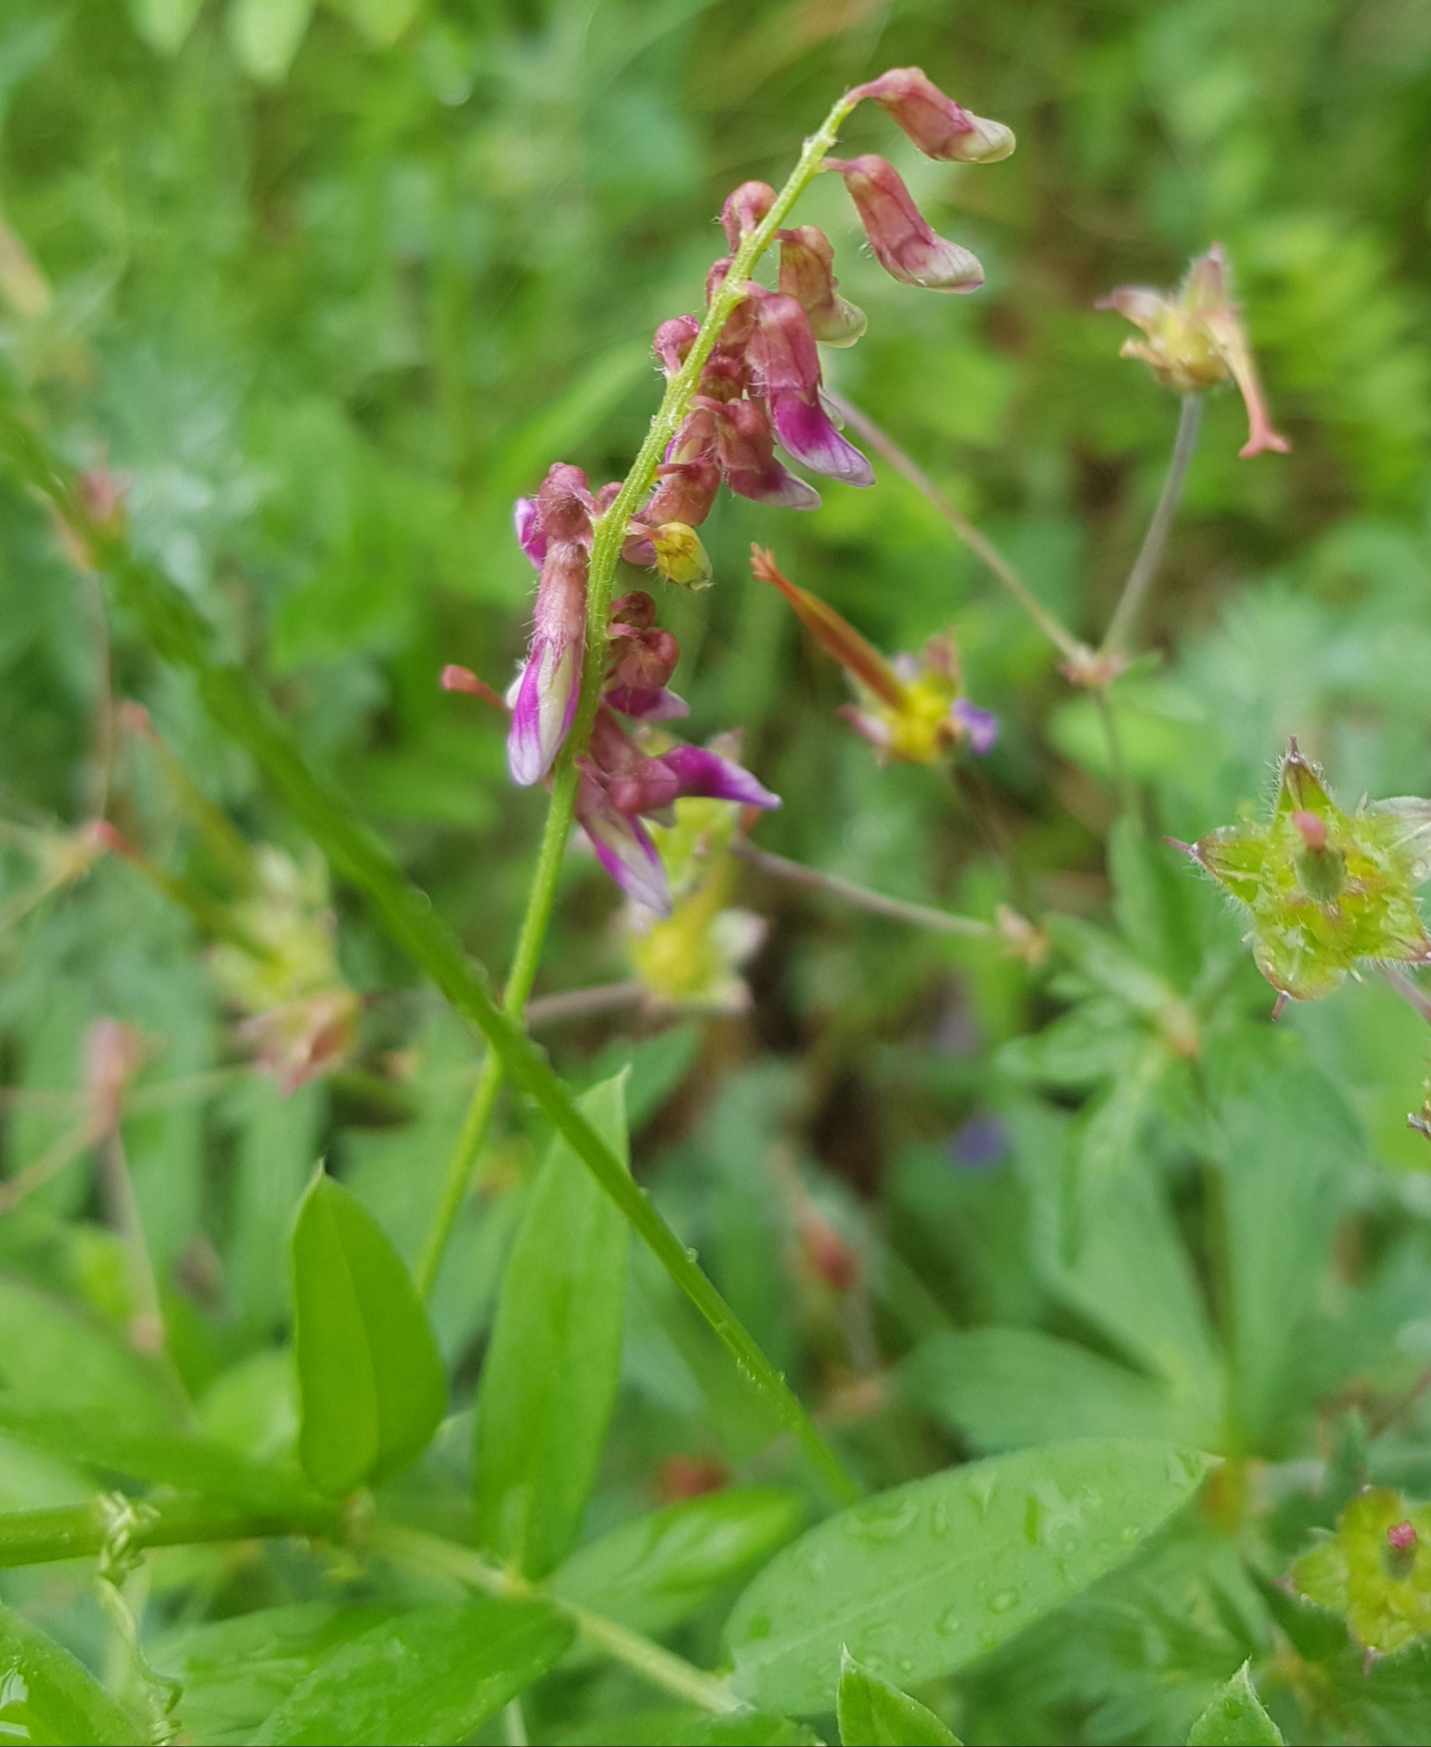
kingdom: Plantae
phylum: Tracheophyta
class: Magnoliopsida
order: Fabales
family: Fabaceae
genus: Vicia
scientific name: Vicia amoena
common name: Cheder ebs
